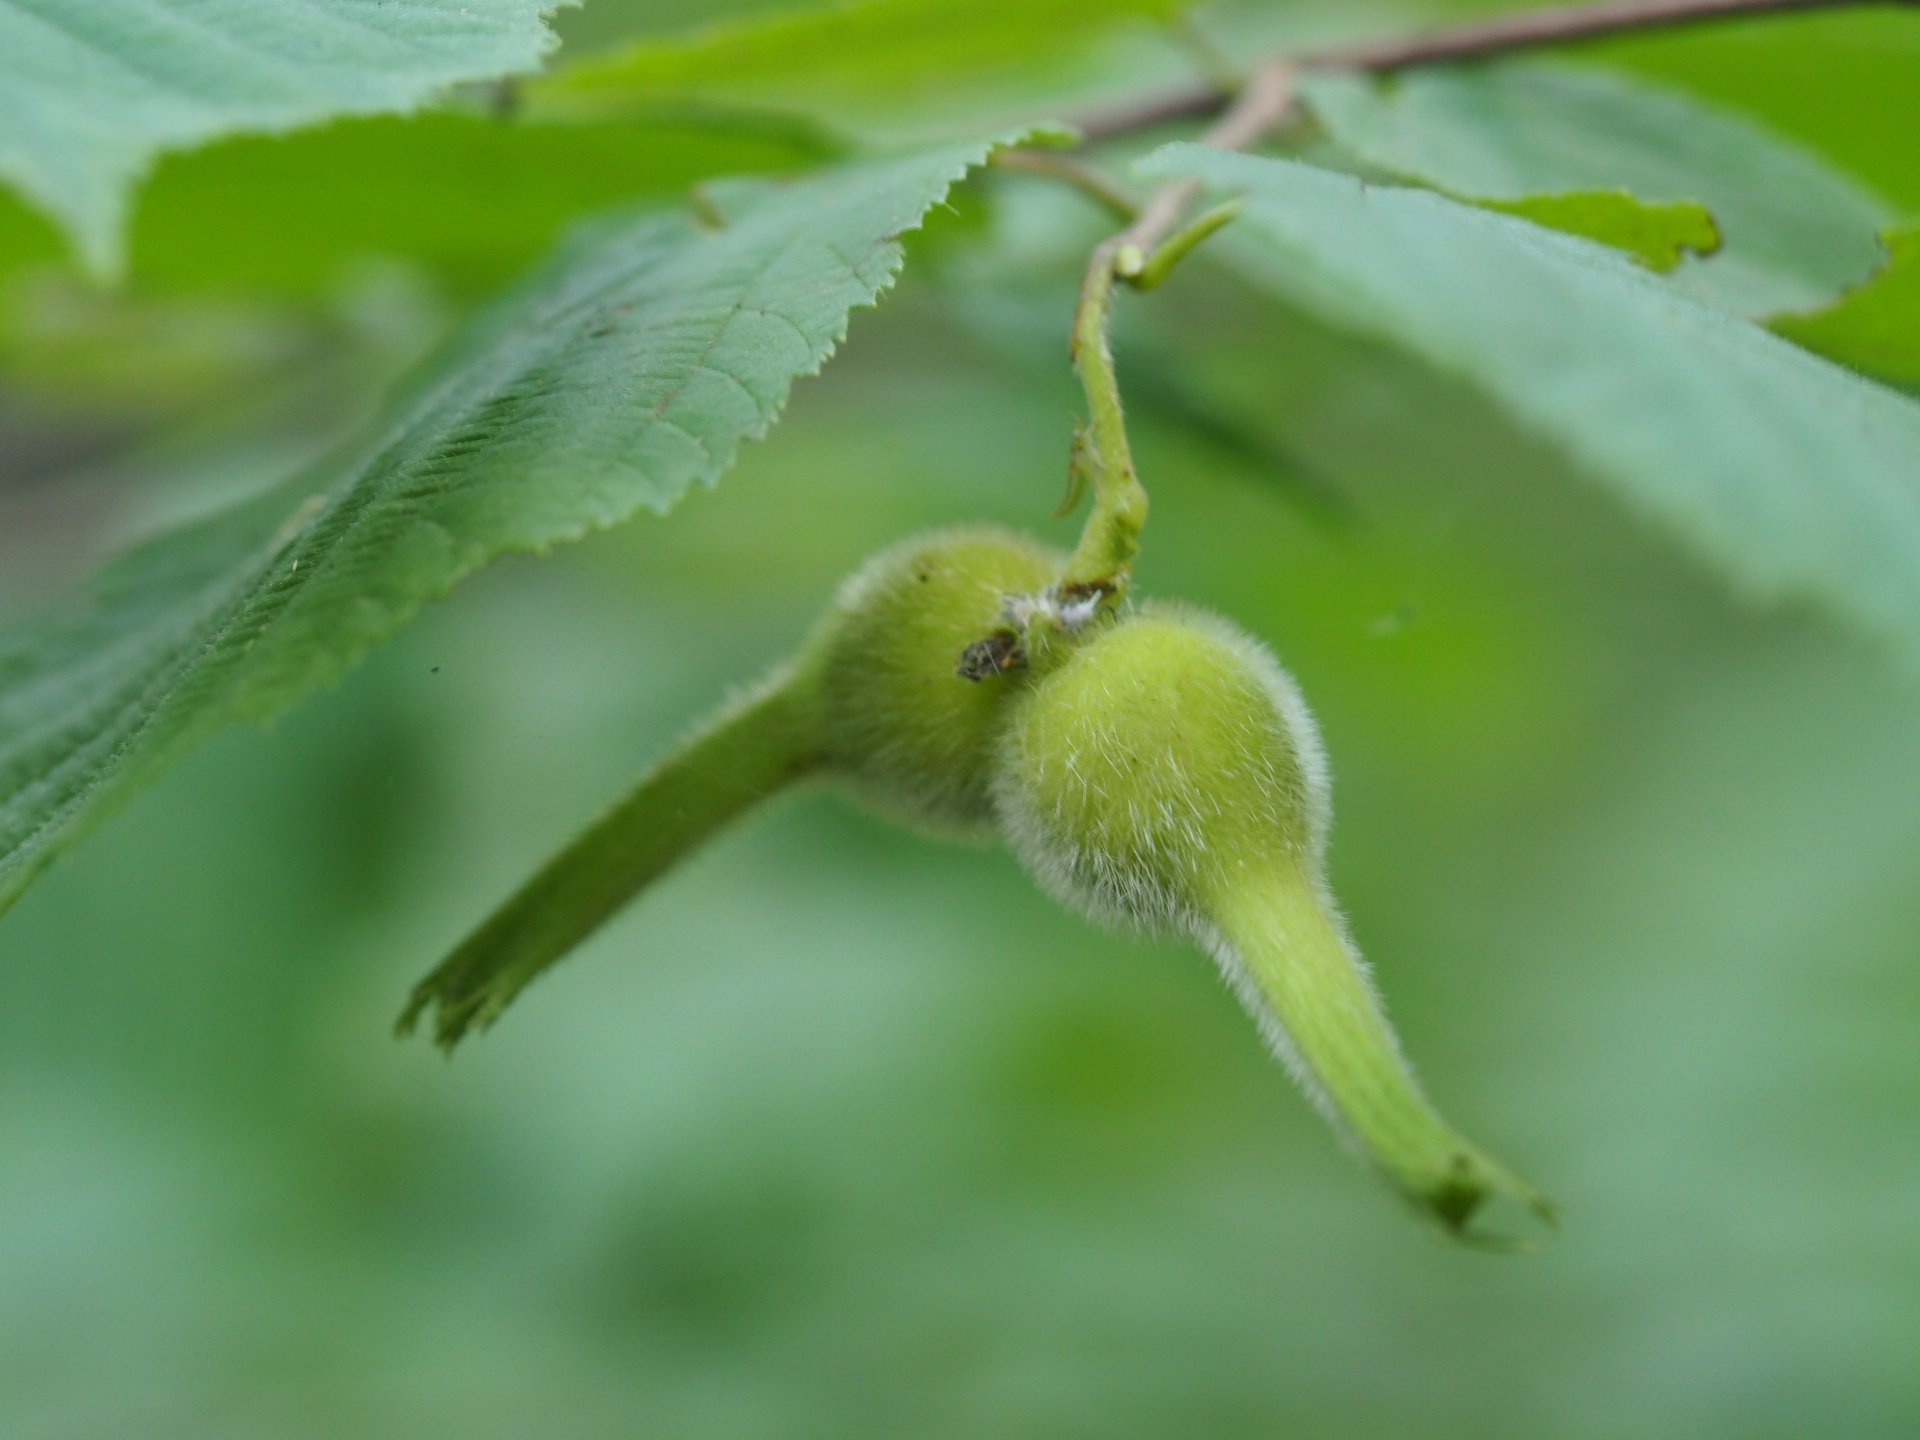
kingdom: Plantae
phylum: Tracheophyta
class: Magnoliopsida
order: Fagales
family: Betulaceae
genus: Corylus
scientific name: Corylus cornuta
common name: Beaked hazel
